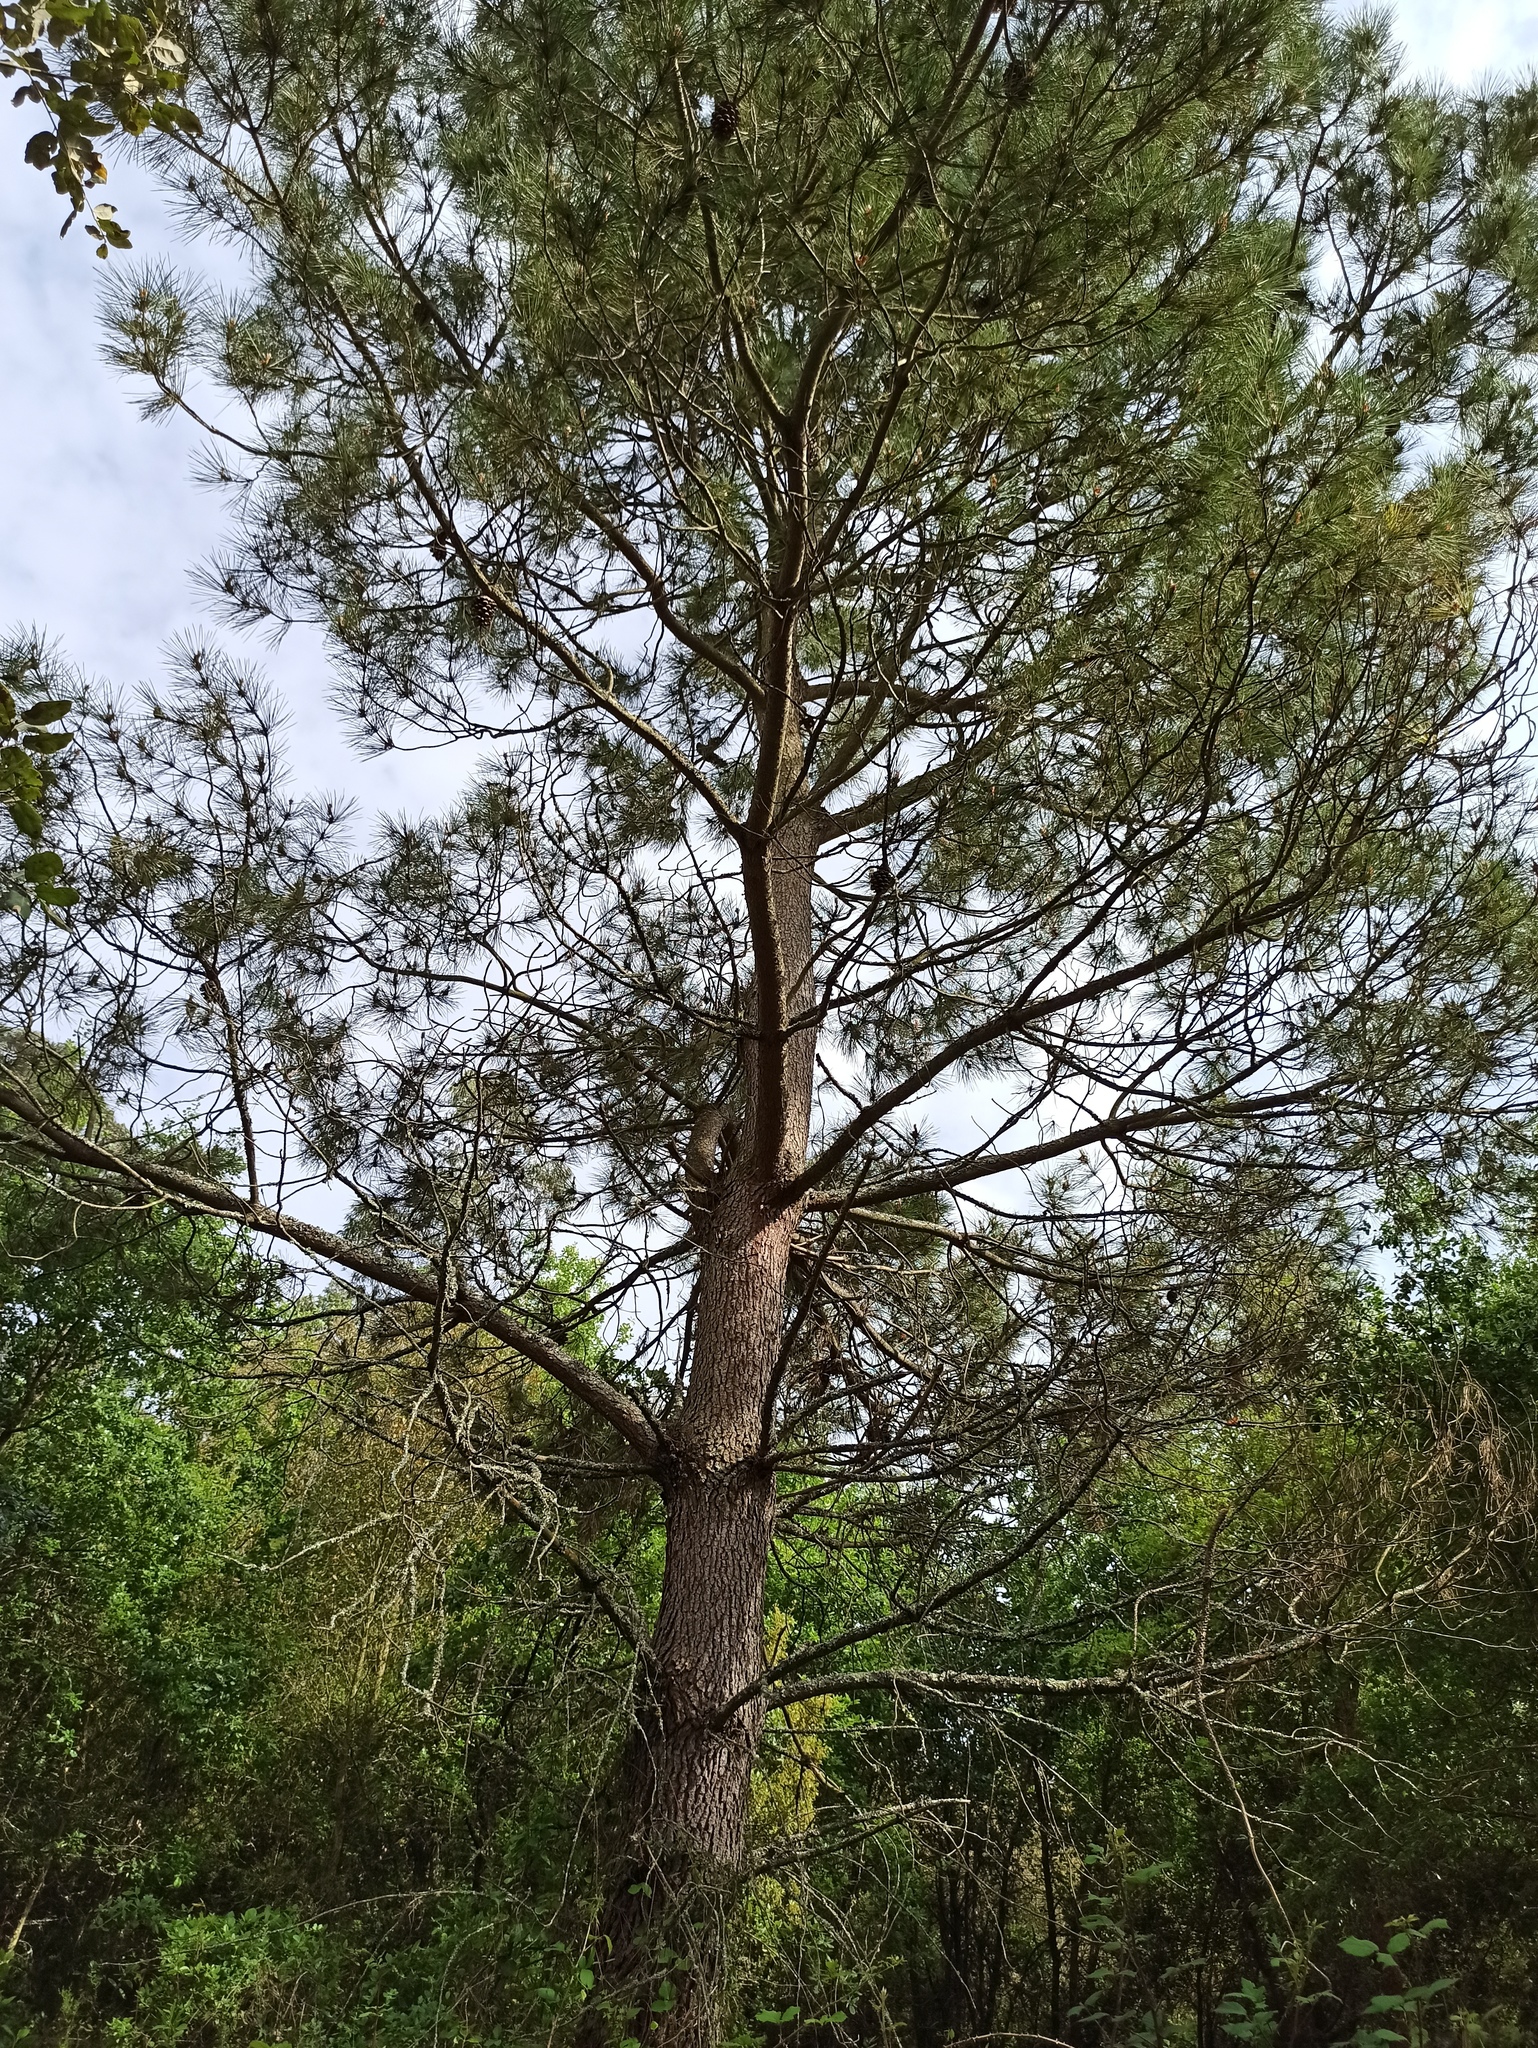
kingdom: Plantae
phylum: Tracheophyta
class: Pinopsida
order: Pinales
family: Pinaceae
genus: Pinus
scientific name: Pinus pinaster
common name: Maritime pine
